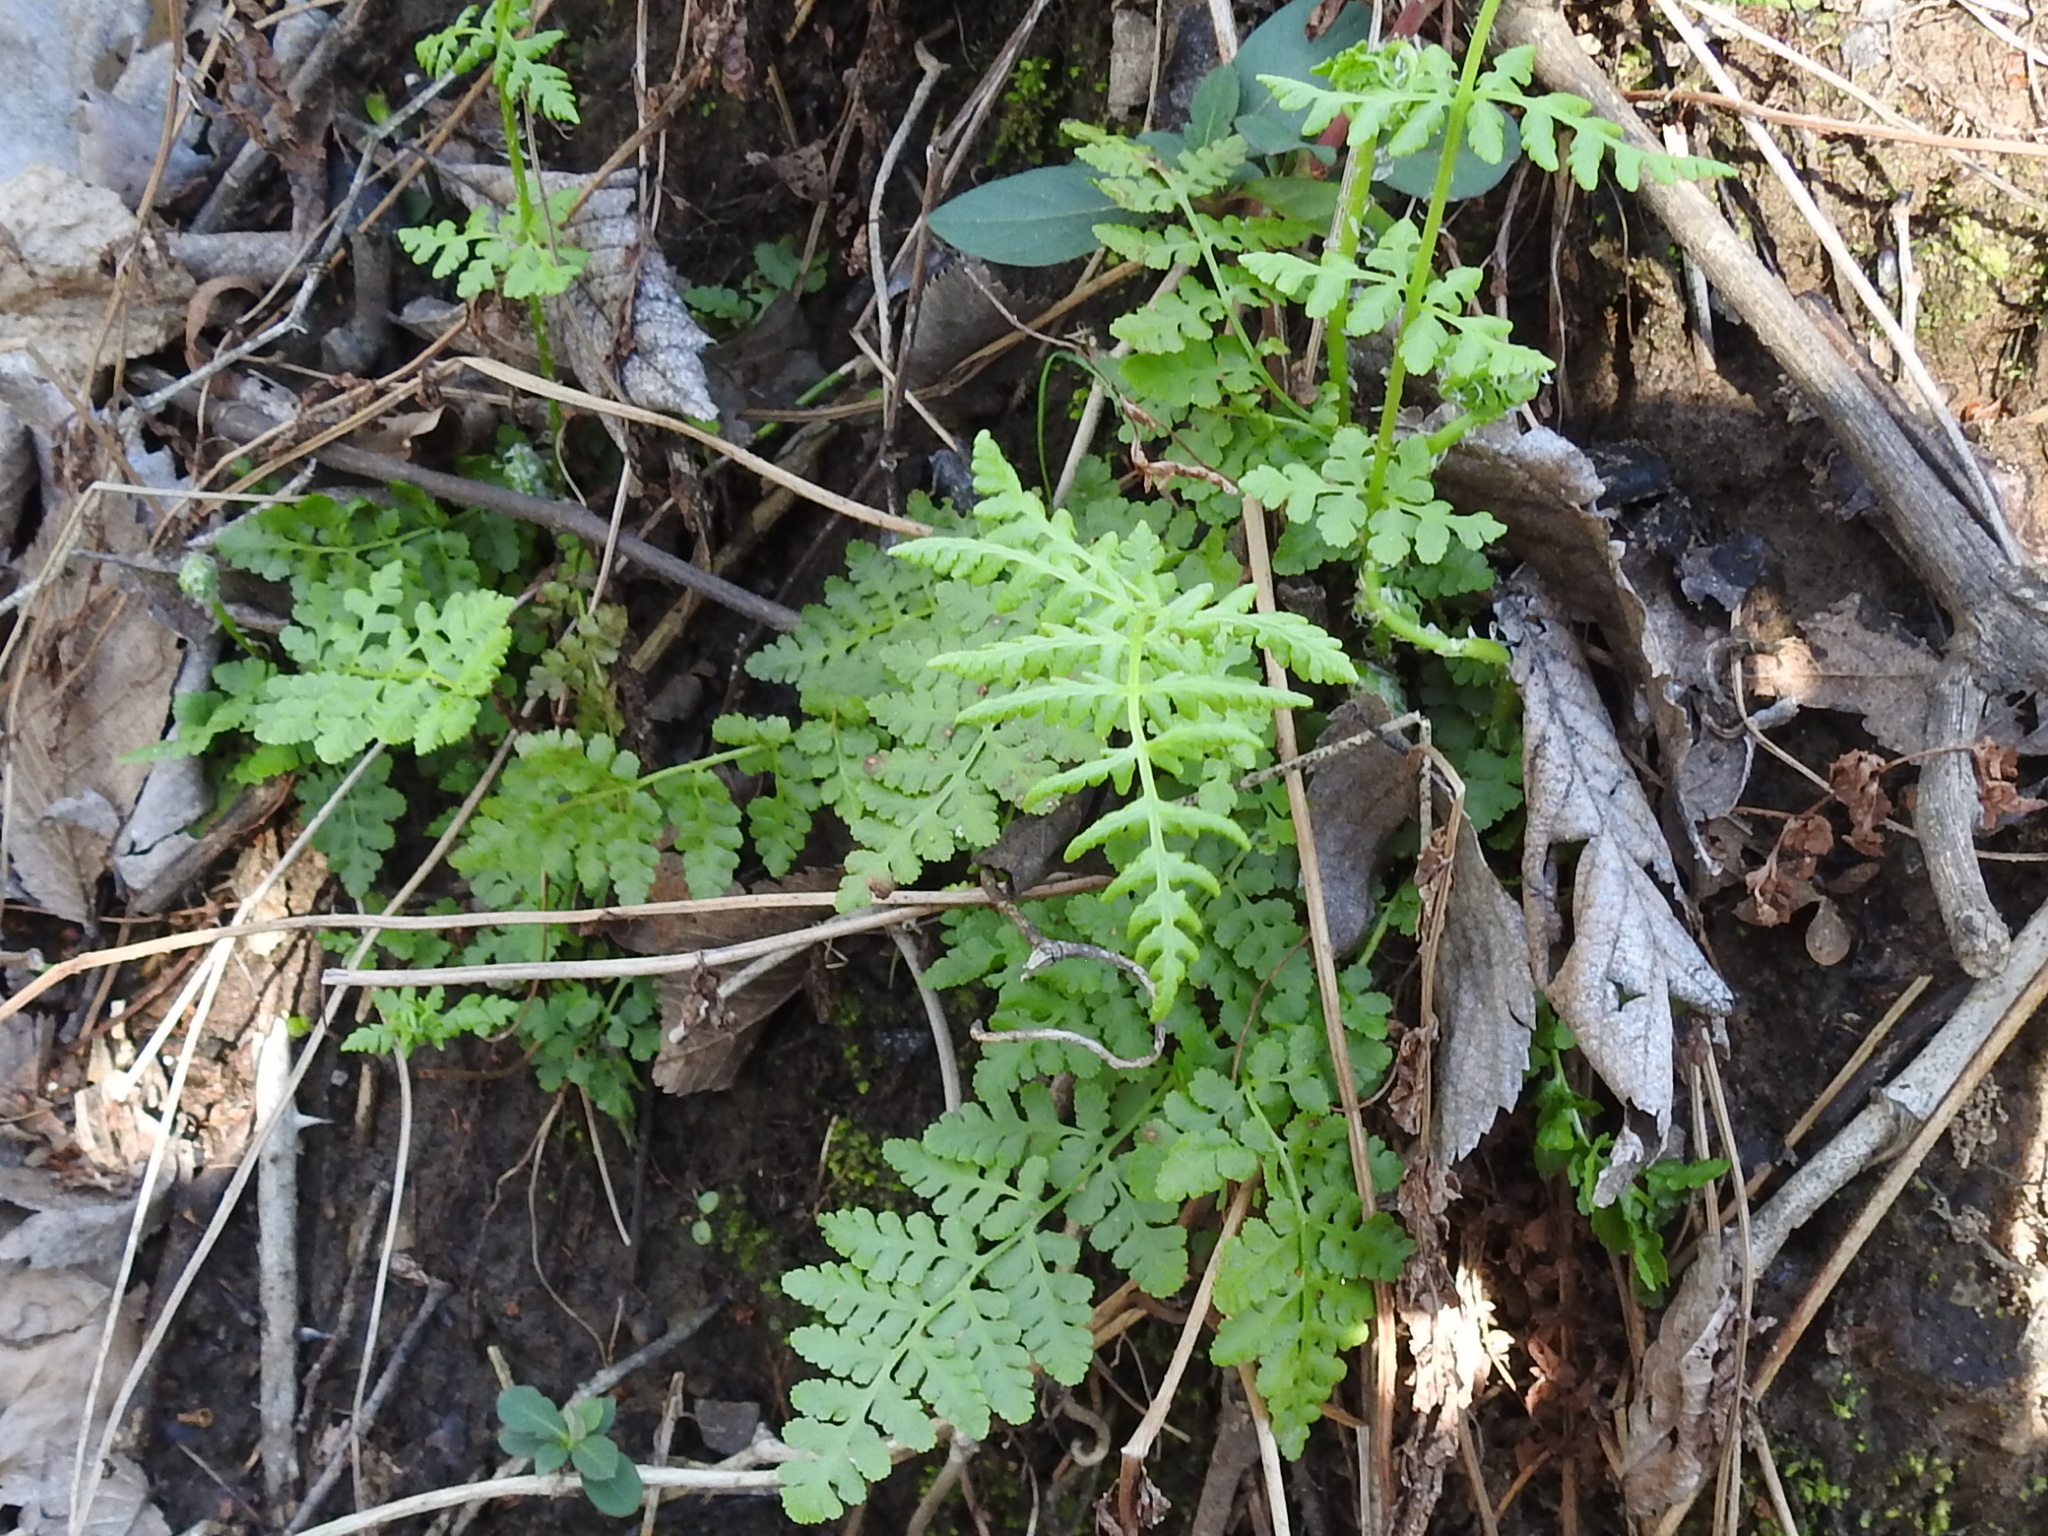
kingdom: Plantae
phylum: Tracheophyta
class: Polypodiopsida
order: Polypodiales
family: Woodsiaceae
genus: Physematium
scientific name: Physematium obtusum
